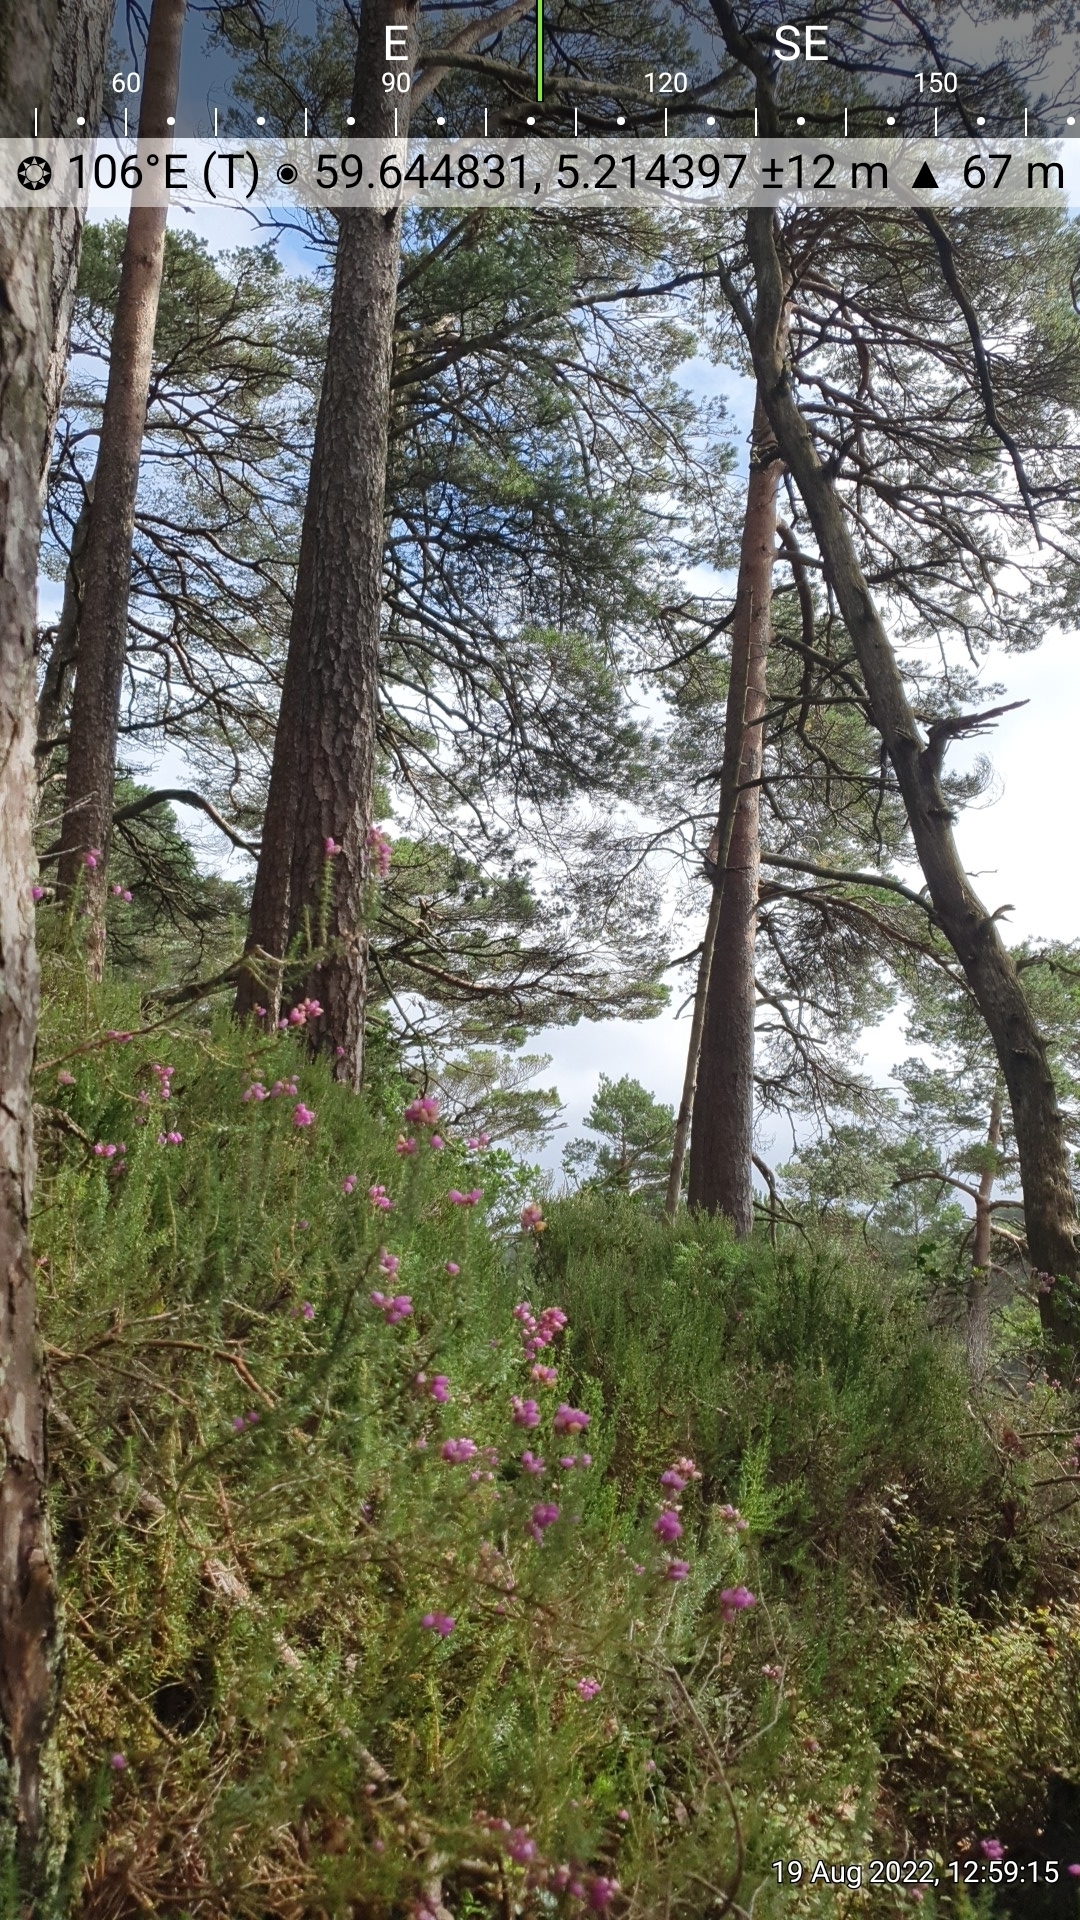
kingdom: Plantae
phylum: Tracheophyta
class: Magnoliopsida
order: Ericales
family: Ericaceae
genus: Erica
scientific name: Erica cinerea
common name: Bell heather
